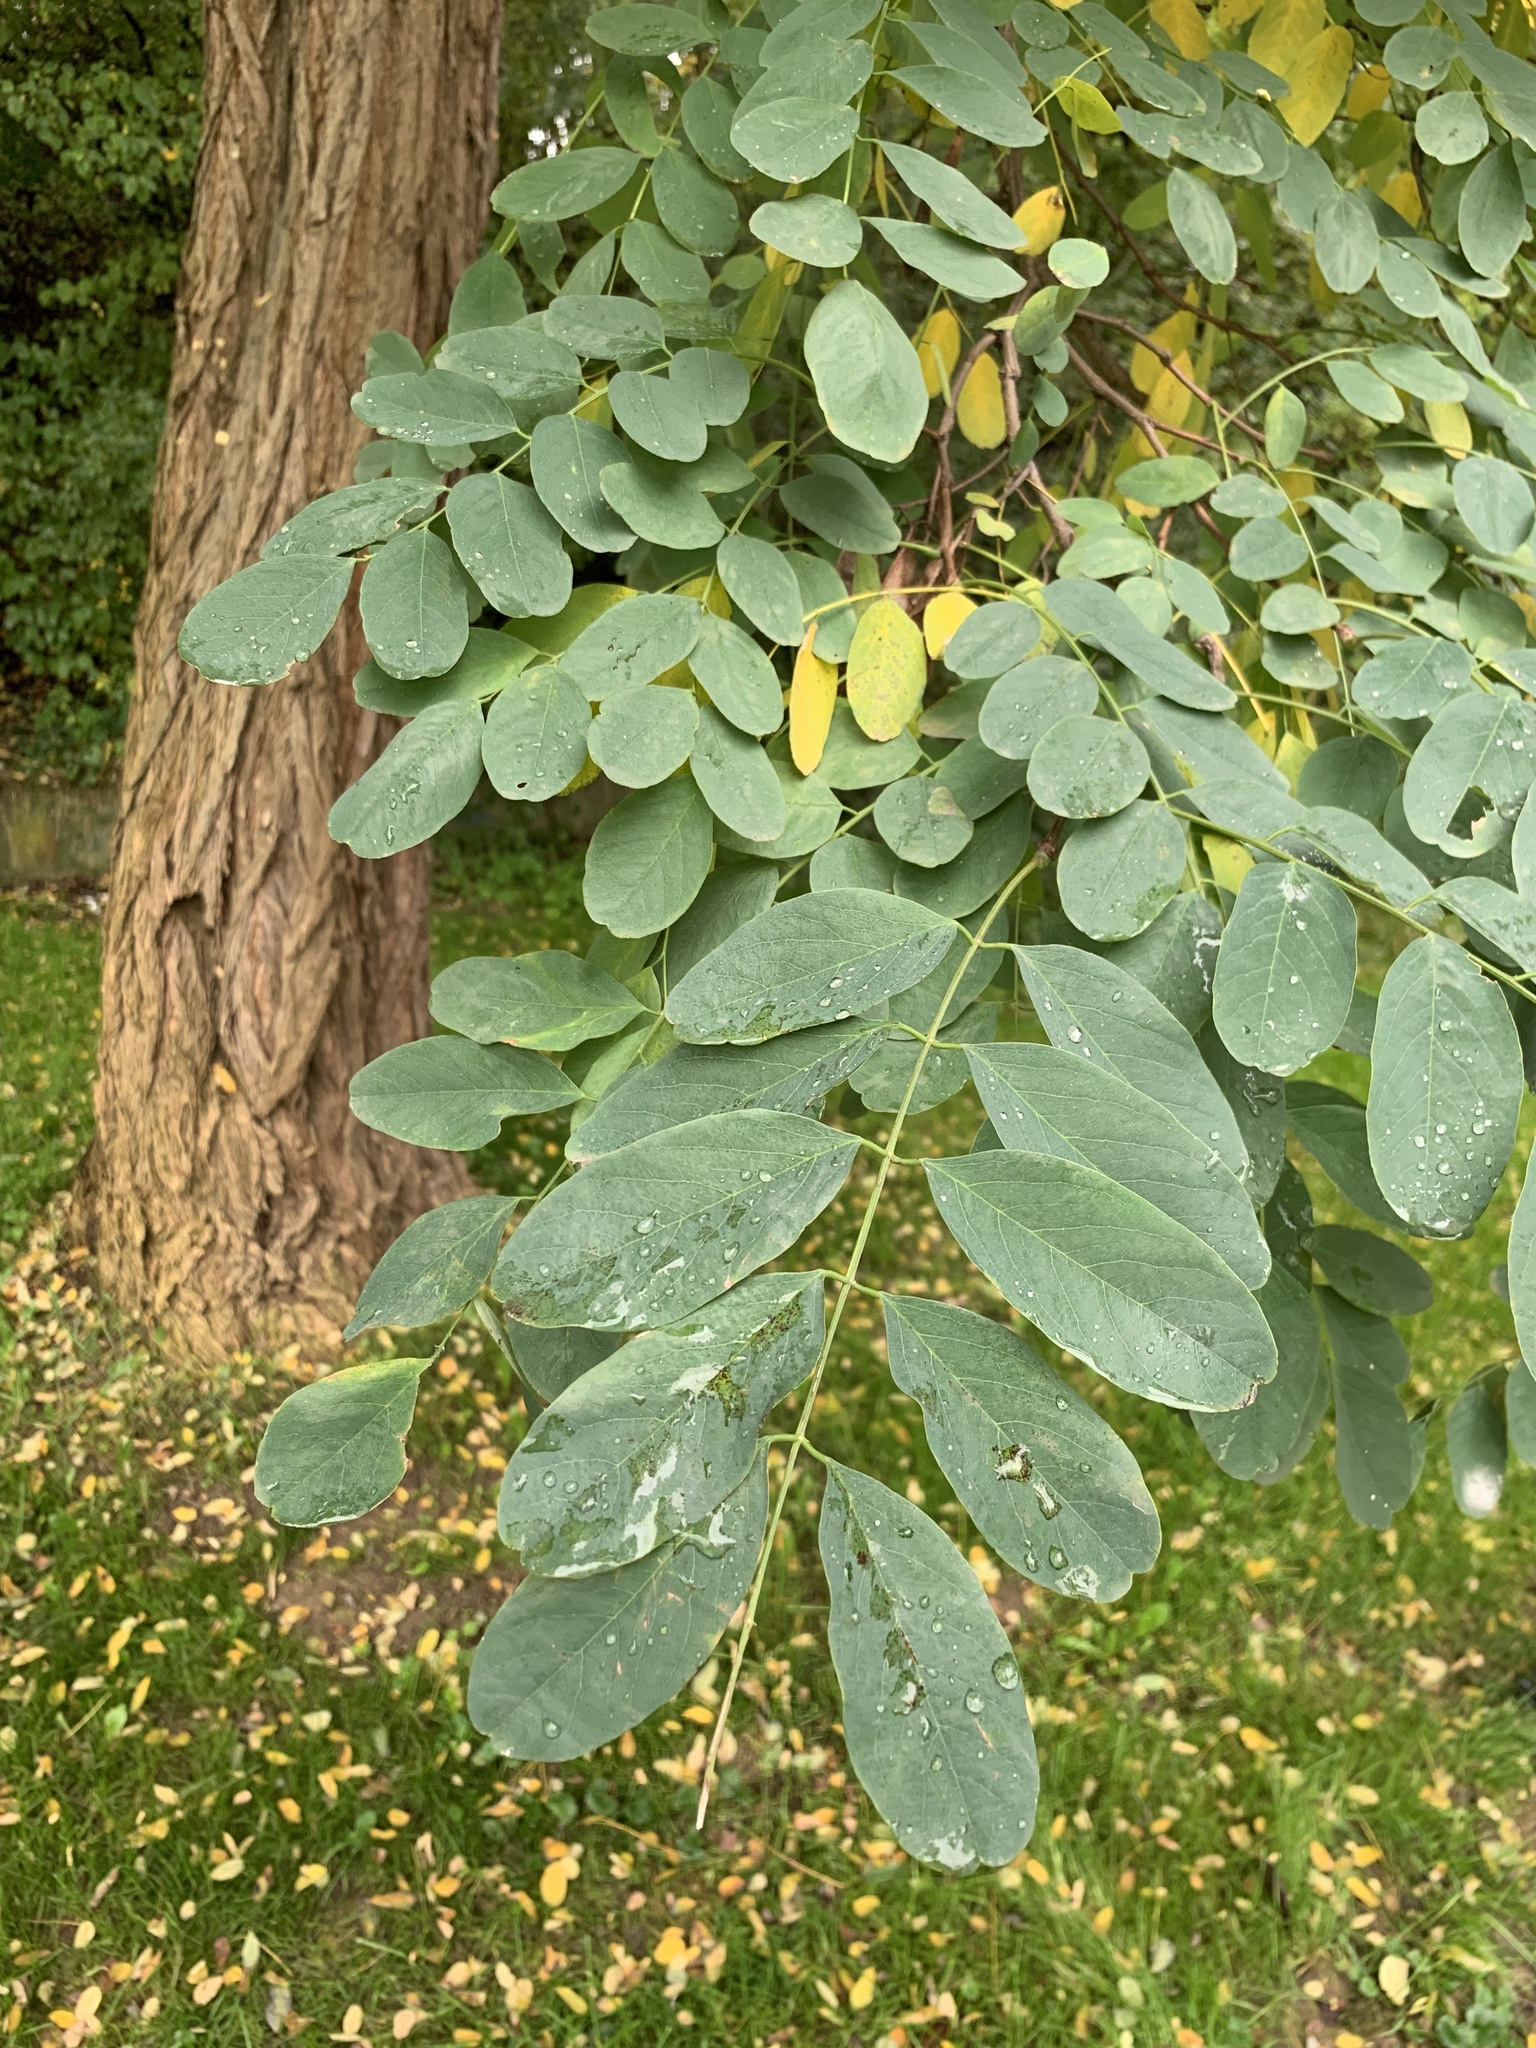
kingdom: Plantae
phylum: Tracheophyta
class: Magnoliopsida
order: Fabales
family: Fabaceae
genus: Robinia
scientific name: Robinia pseudoacacia
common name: Black locust
